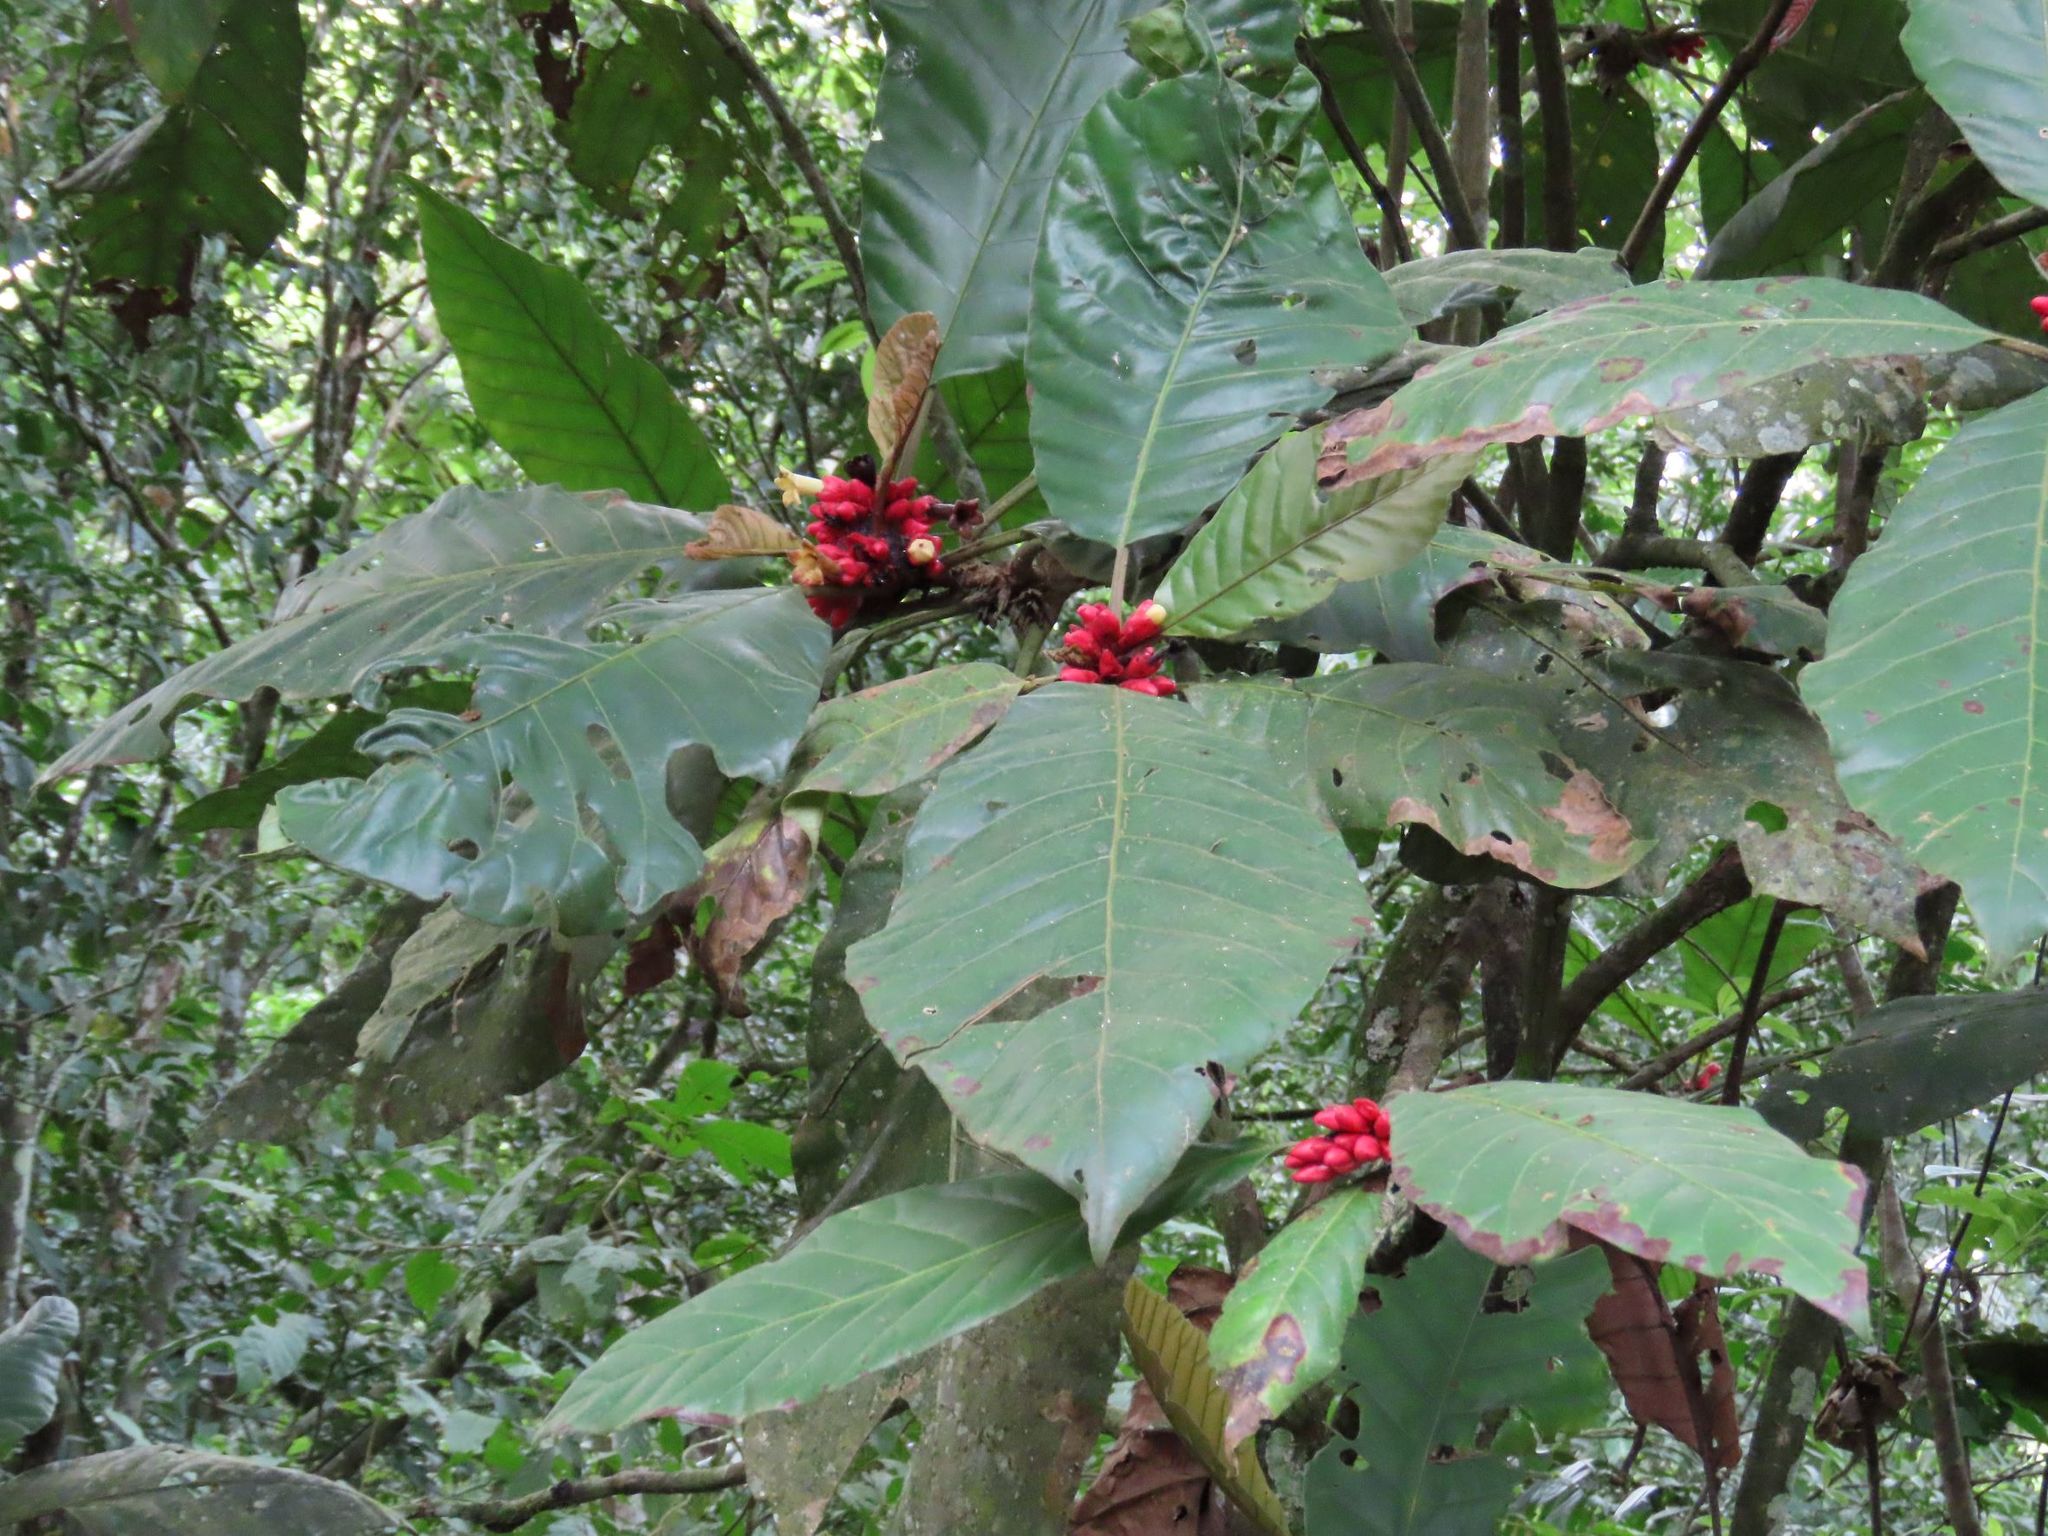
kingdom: Plantae
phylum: Tracheophyta
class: Magnoliopsida
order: Gentianales
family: Rubiaceae
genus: Pentagonia
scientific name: Pentagonia macrophylla
